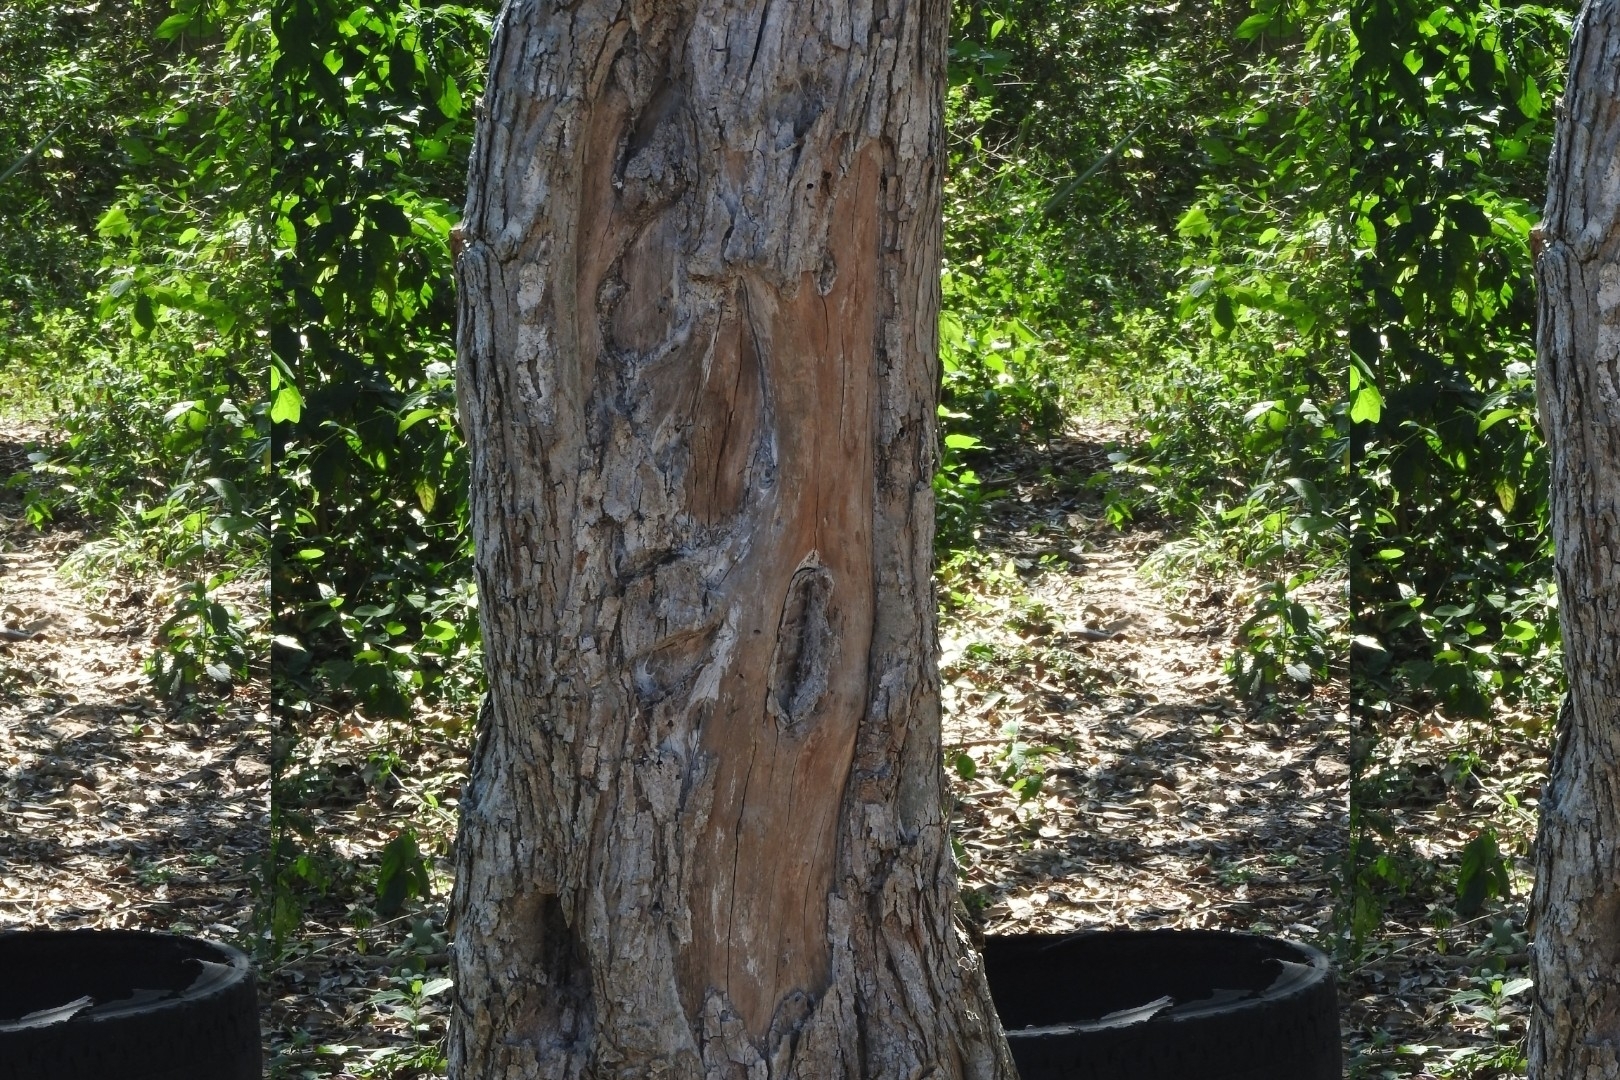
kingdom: Plantae
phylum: Tracheophyta
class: Magnoliopsida
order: Sapindales
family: Meliaceae
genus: Cedrela
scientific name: Cedrela odorata
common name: Red cedar
